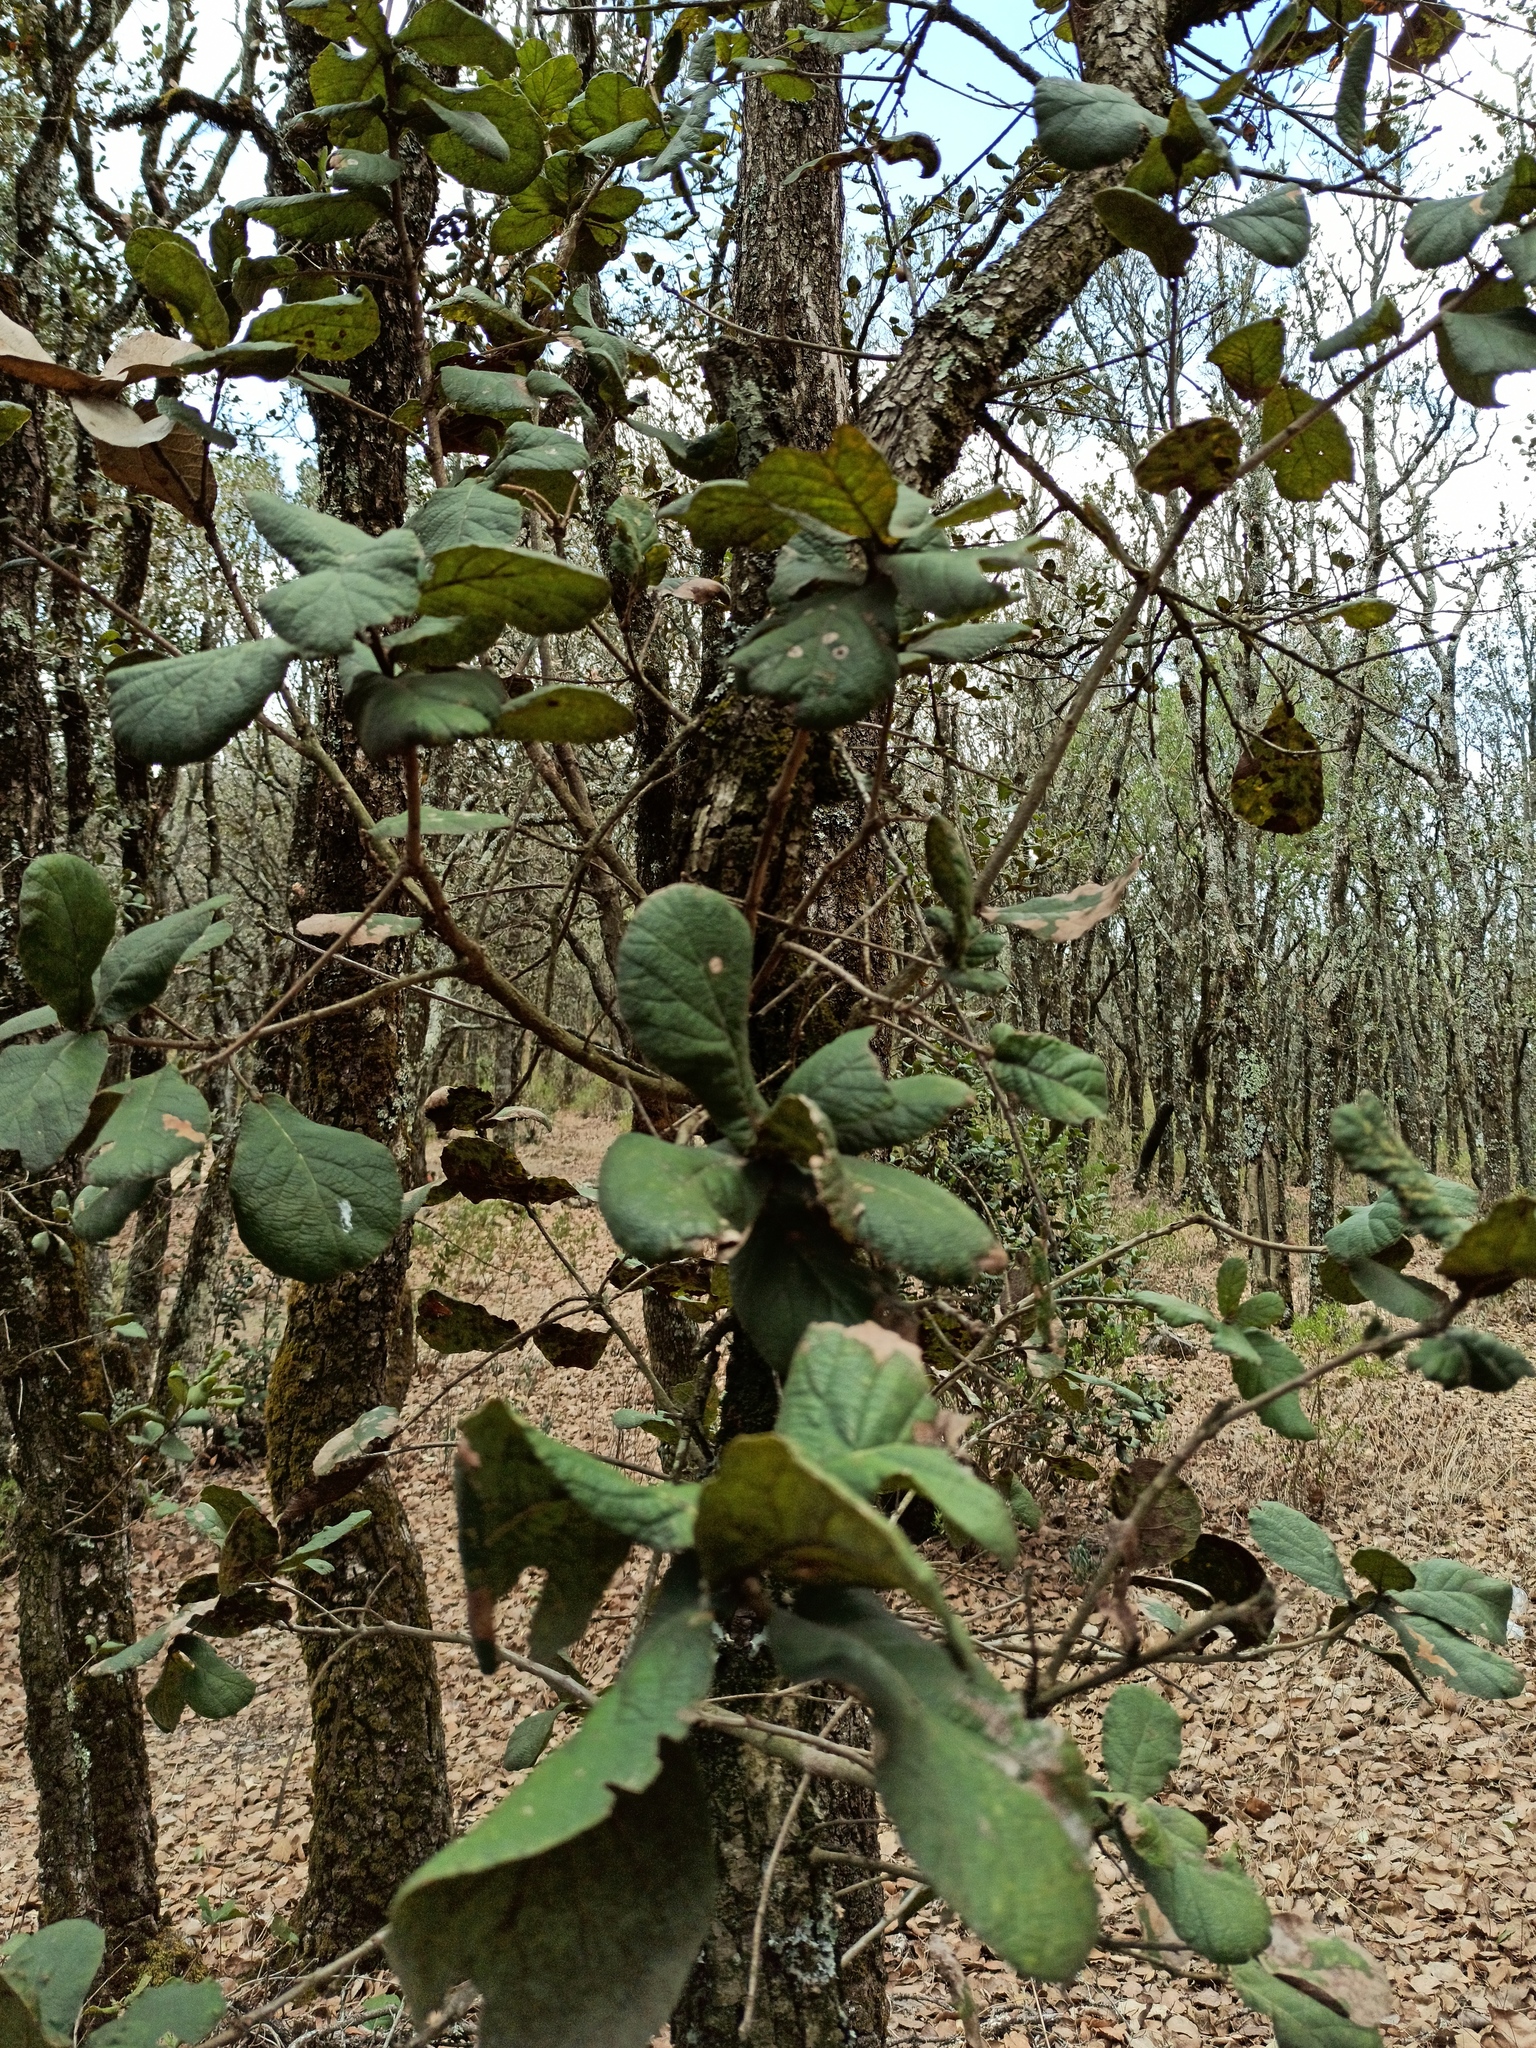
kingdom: Plantae
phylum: Tracheophyta
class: Magnoliopsida
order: Fagales
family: Fagaceae
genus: Quercus
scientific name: Quercus rugosa
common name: Netleaf oak
